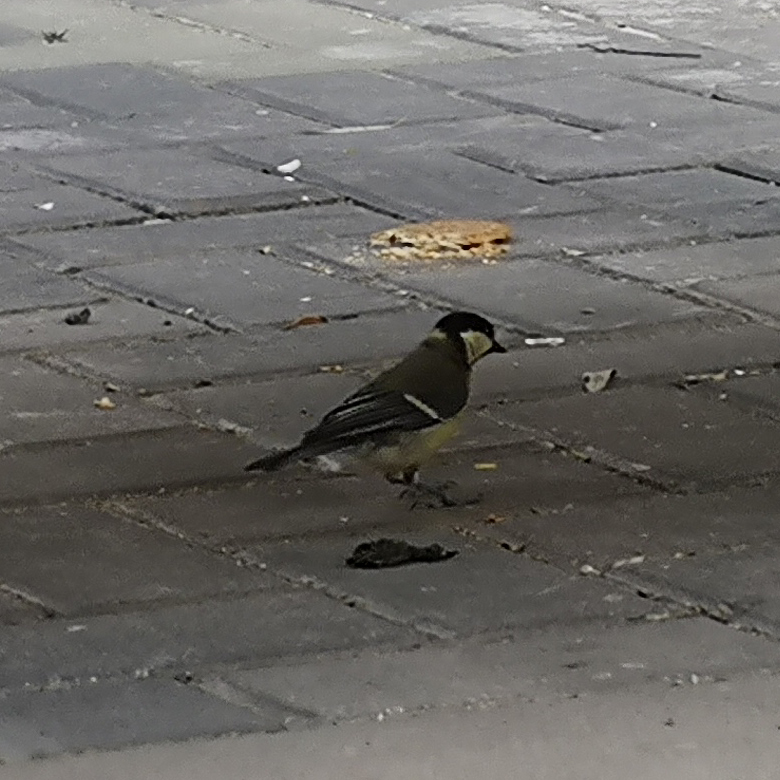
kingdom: Animalia
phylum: Chordata
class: Aves
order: Passeriformes
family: Paridae
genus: Parus
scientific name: Parus major
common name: Great tit
